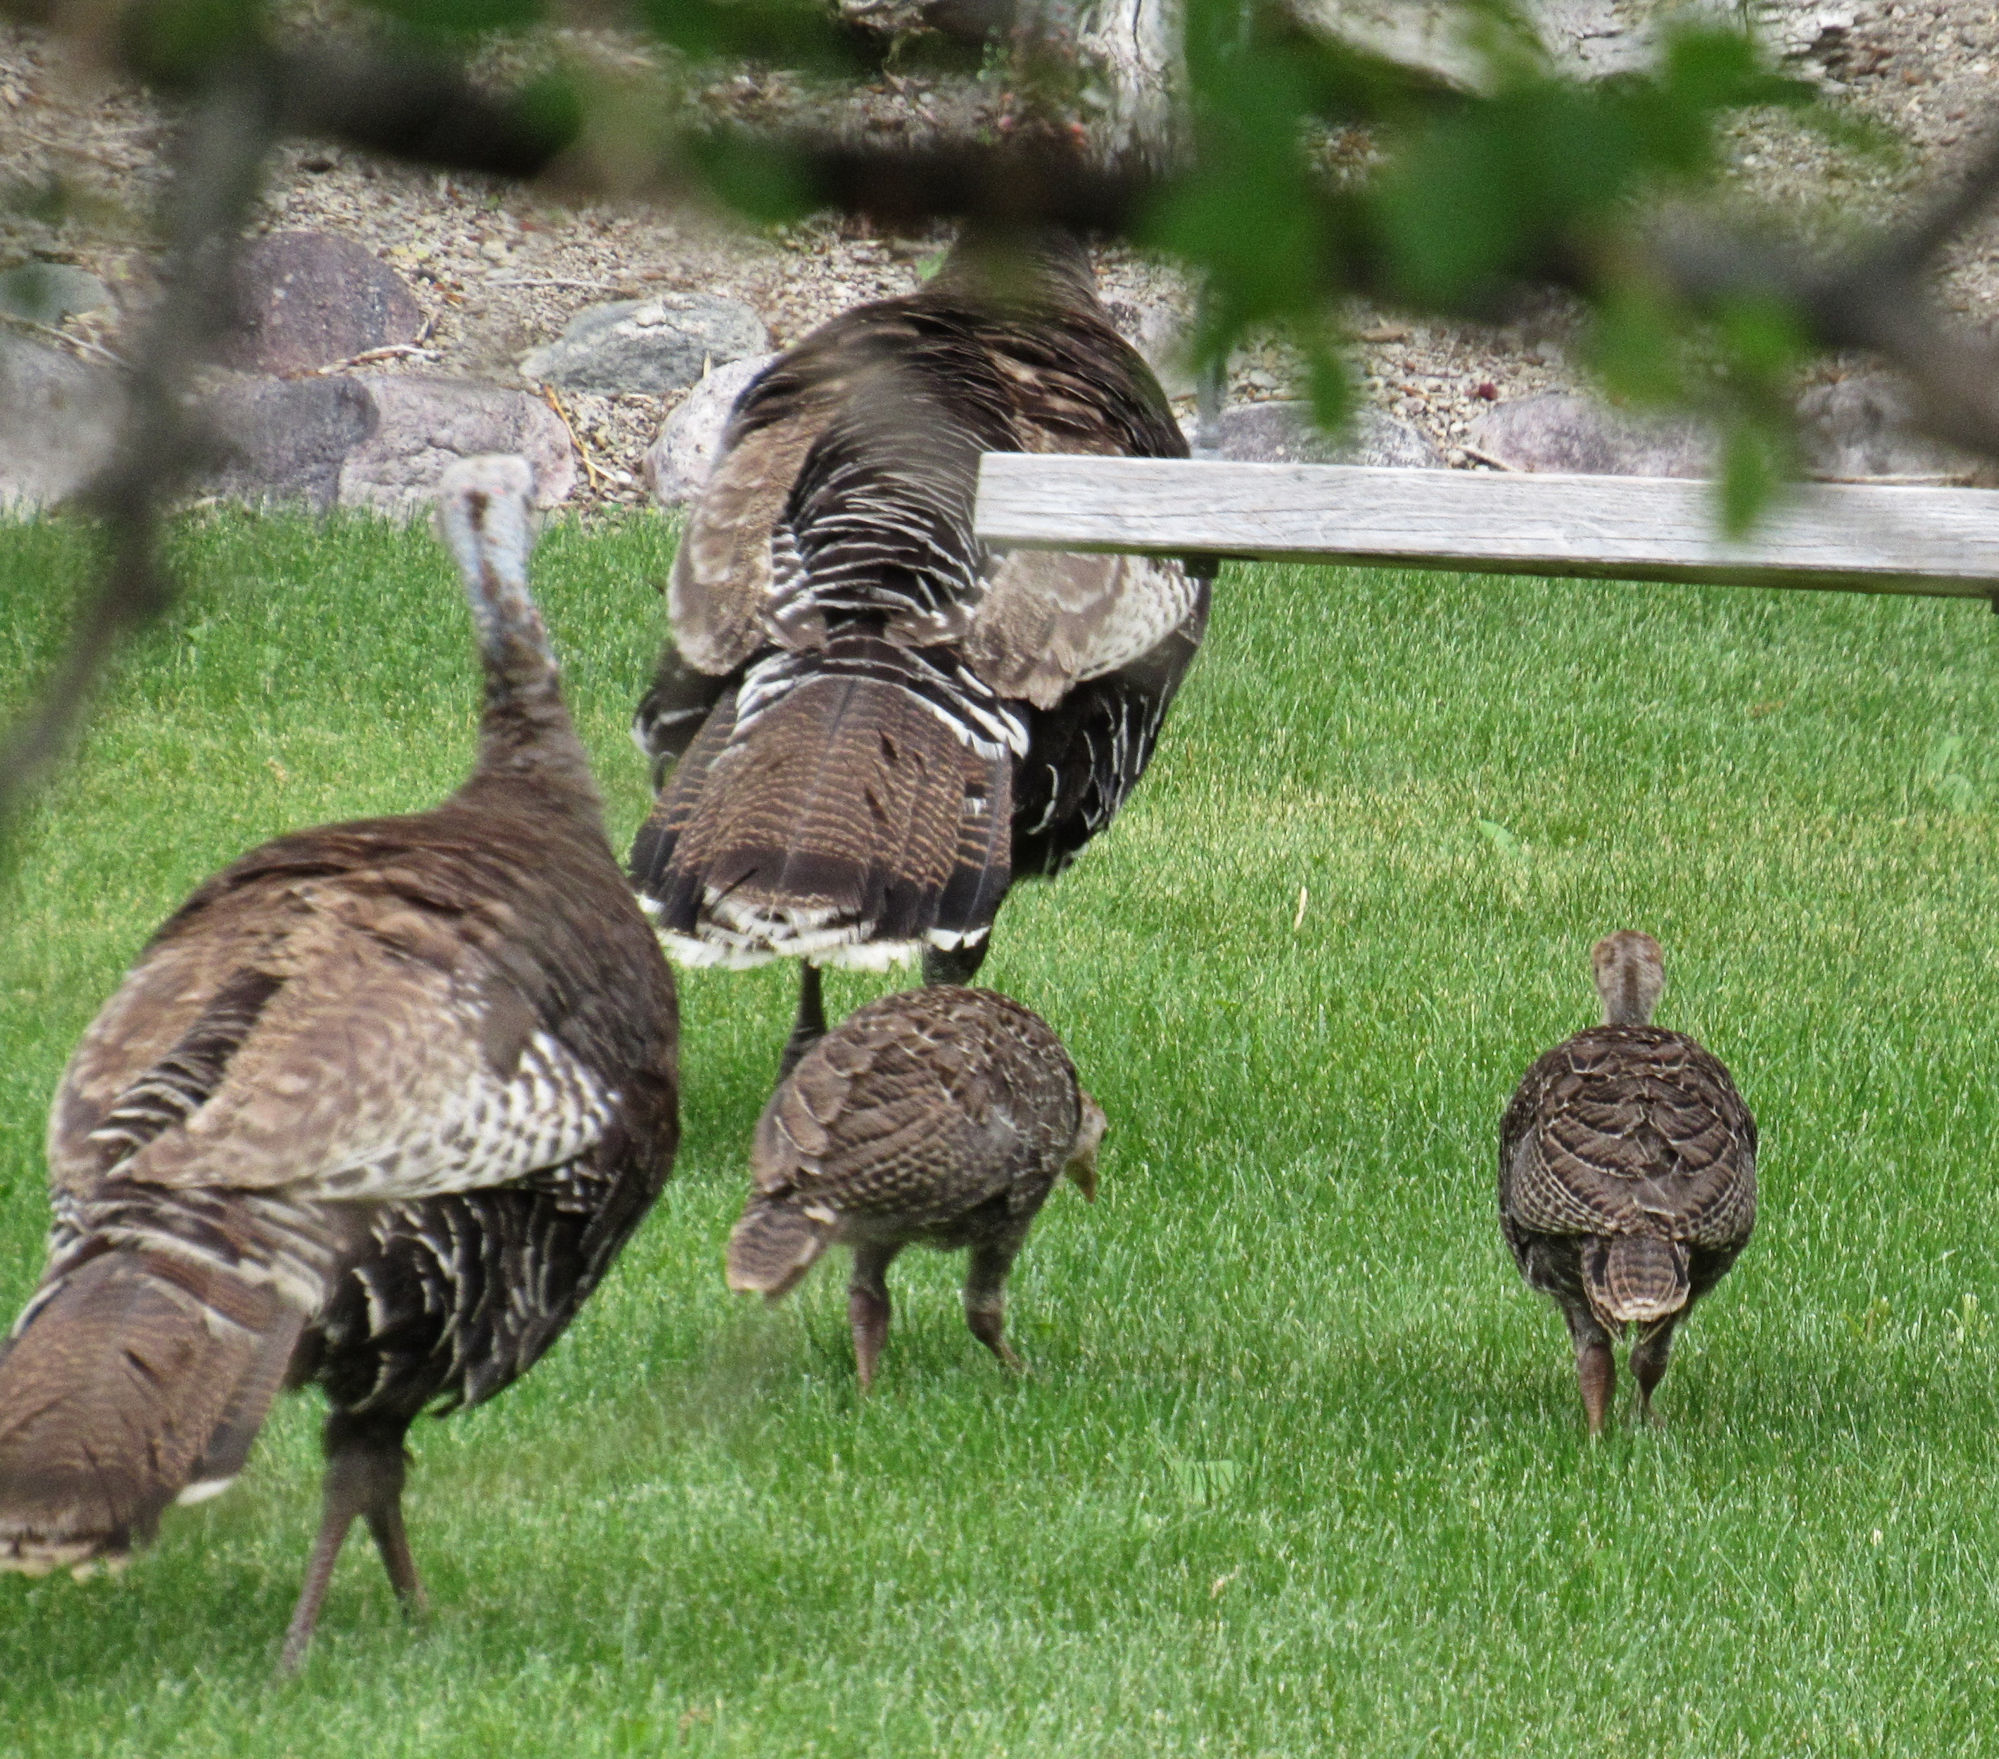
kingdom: Animalia
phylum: Chordata
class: Aves
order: Galliformes
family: Phasianidae
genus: Meleagris
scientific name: Meleagris gallopavo
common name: Wild turkey
